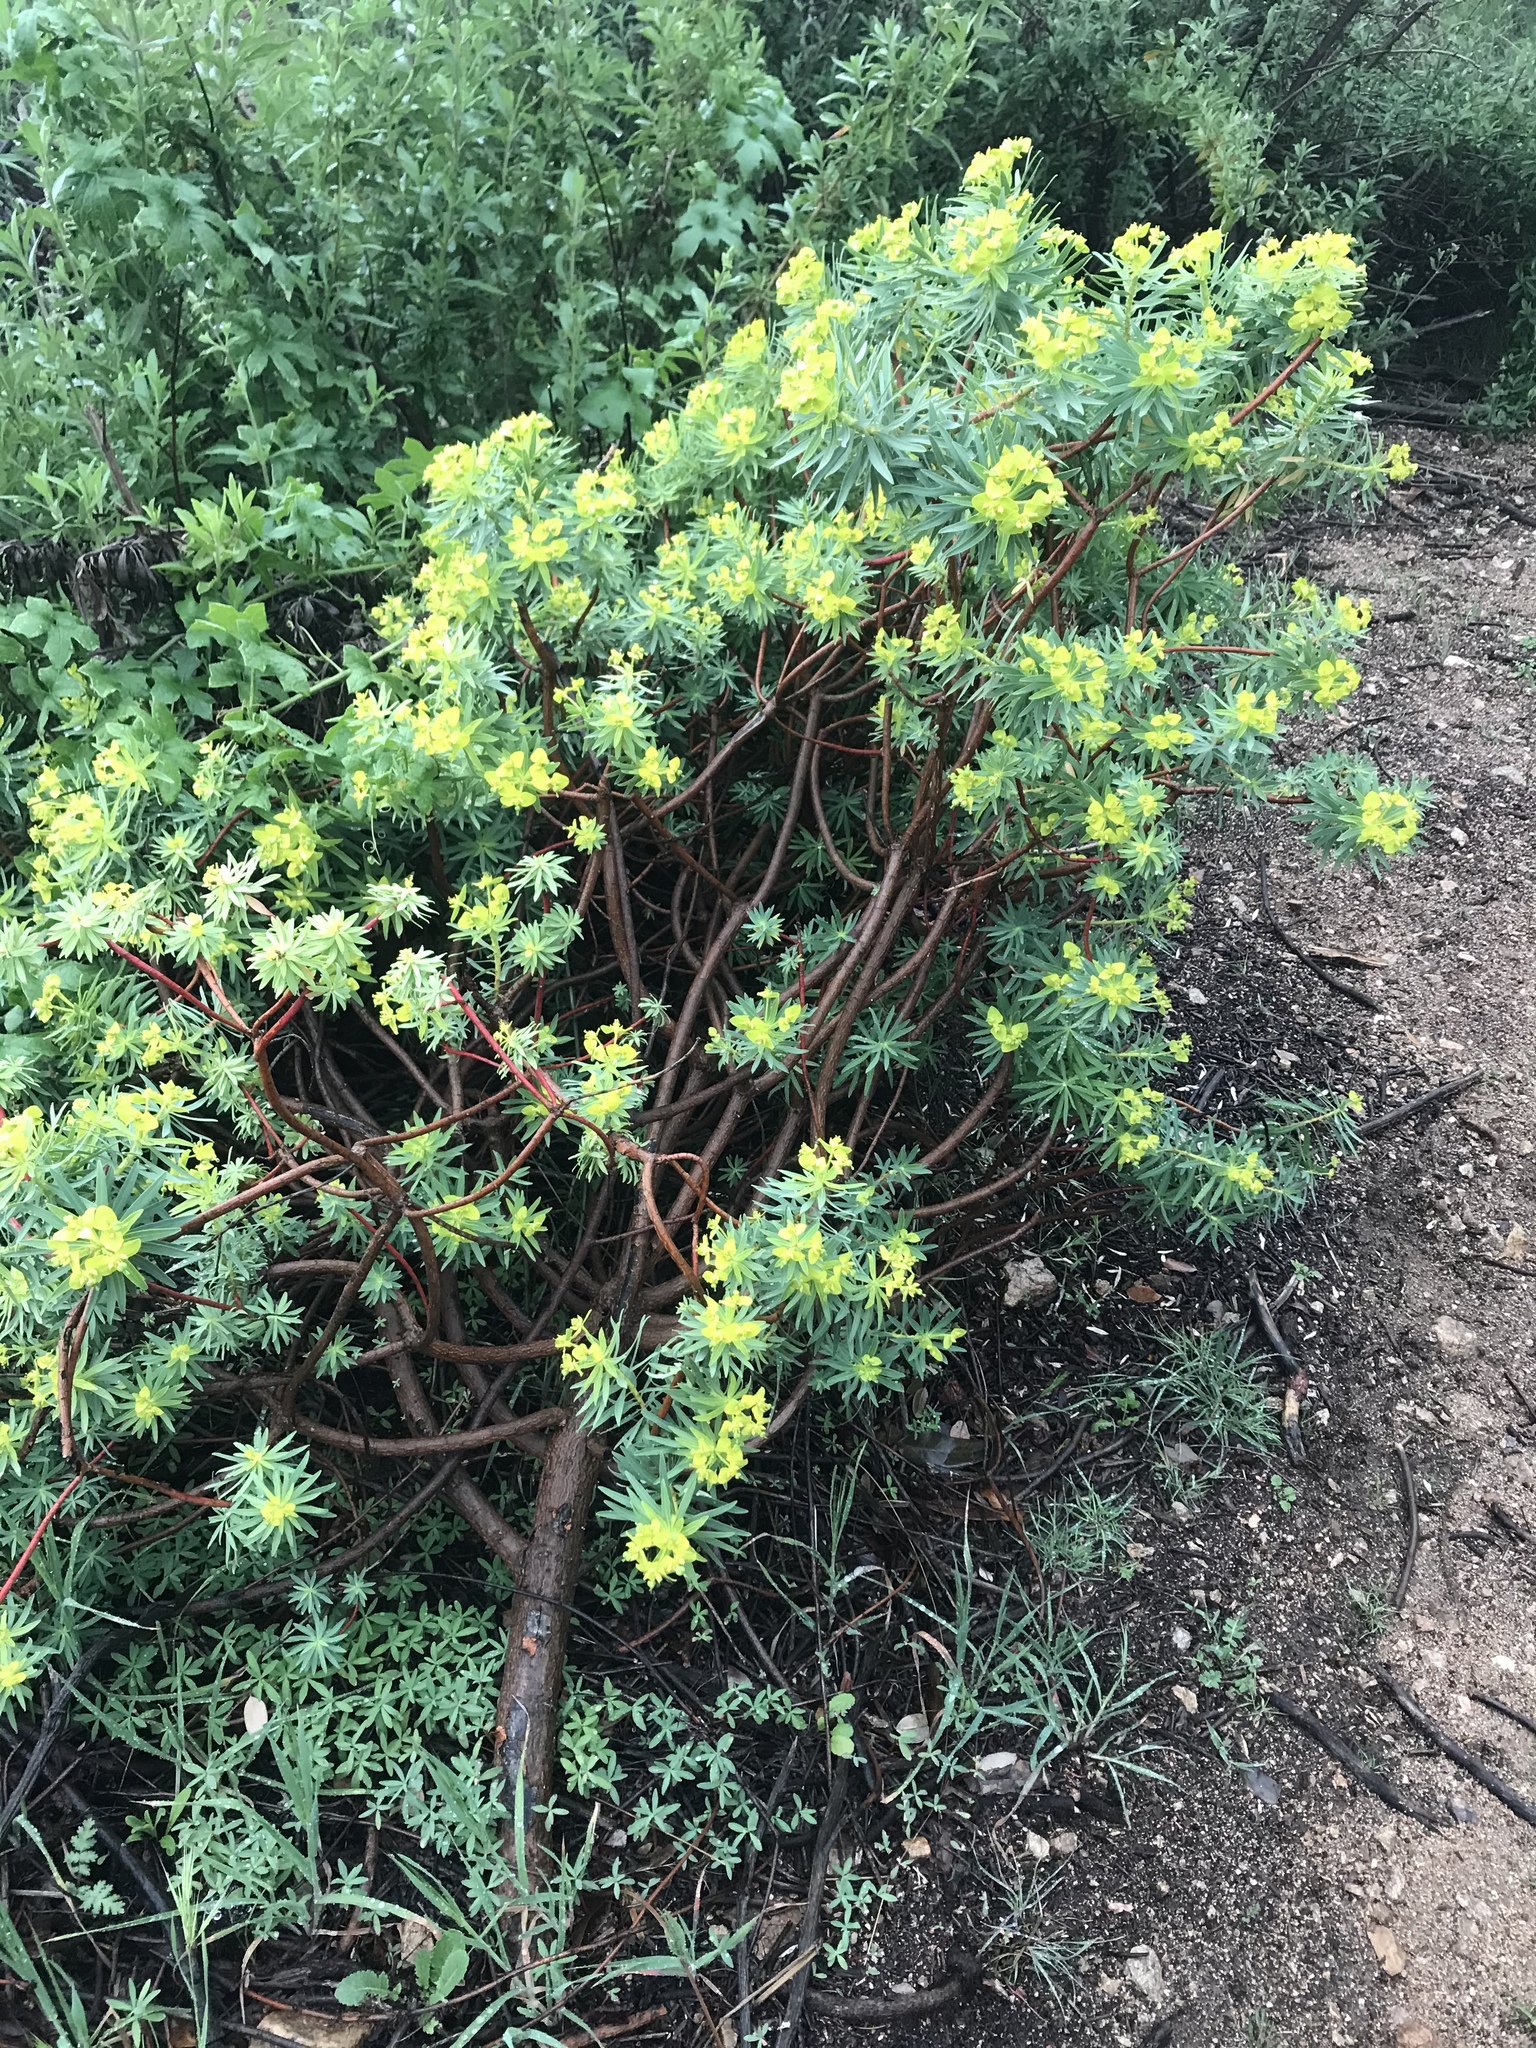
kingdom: Plantae
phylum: Tracheophyta
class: Magnoliopsida
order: Malpighiales
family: Euphorbiaceae
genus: Euphorbia
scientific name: Euphorbia dendroides
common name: Tree spurge
